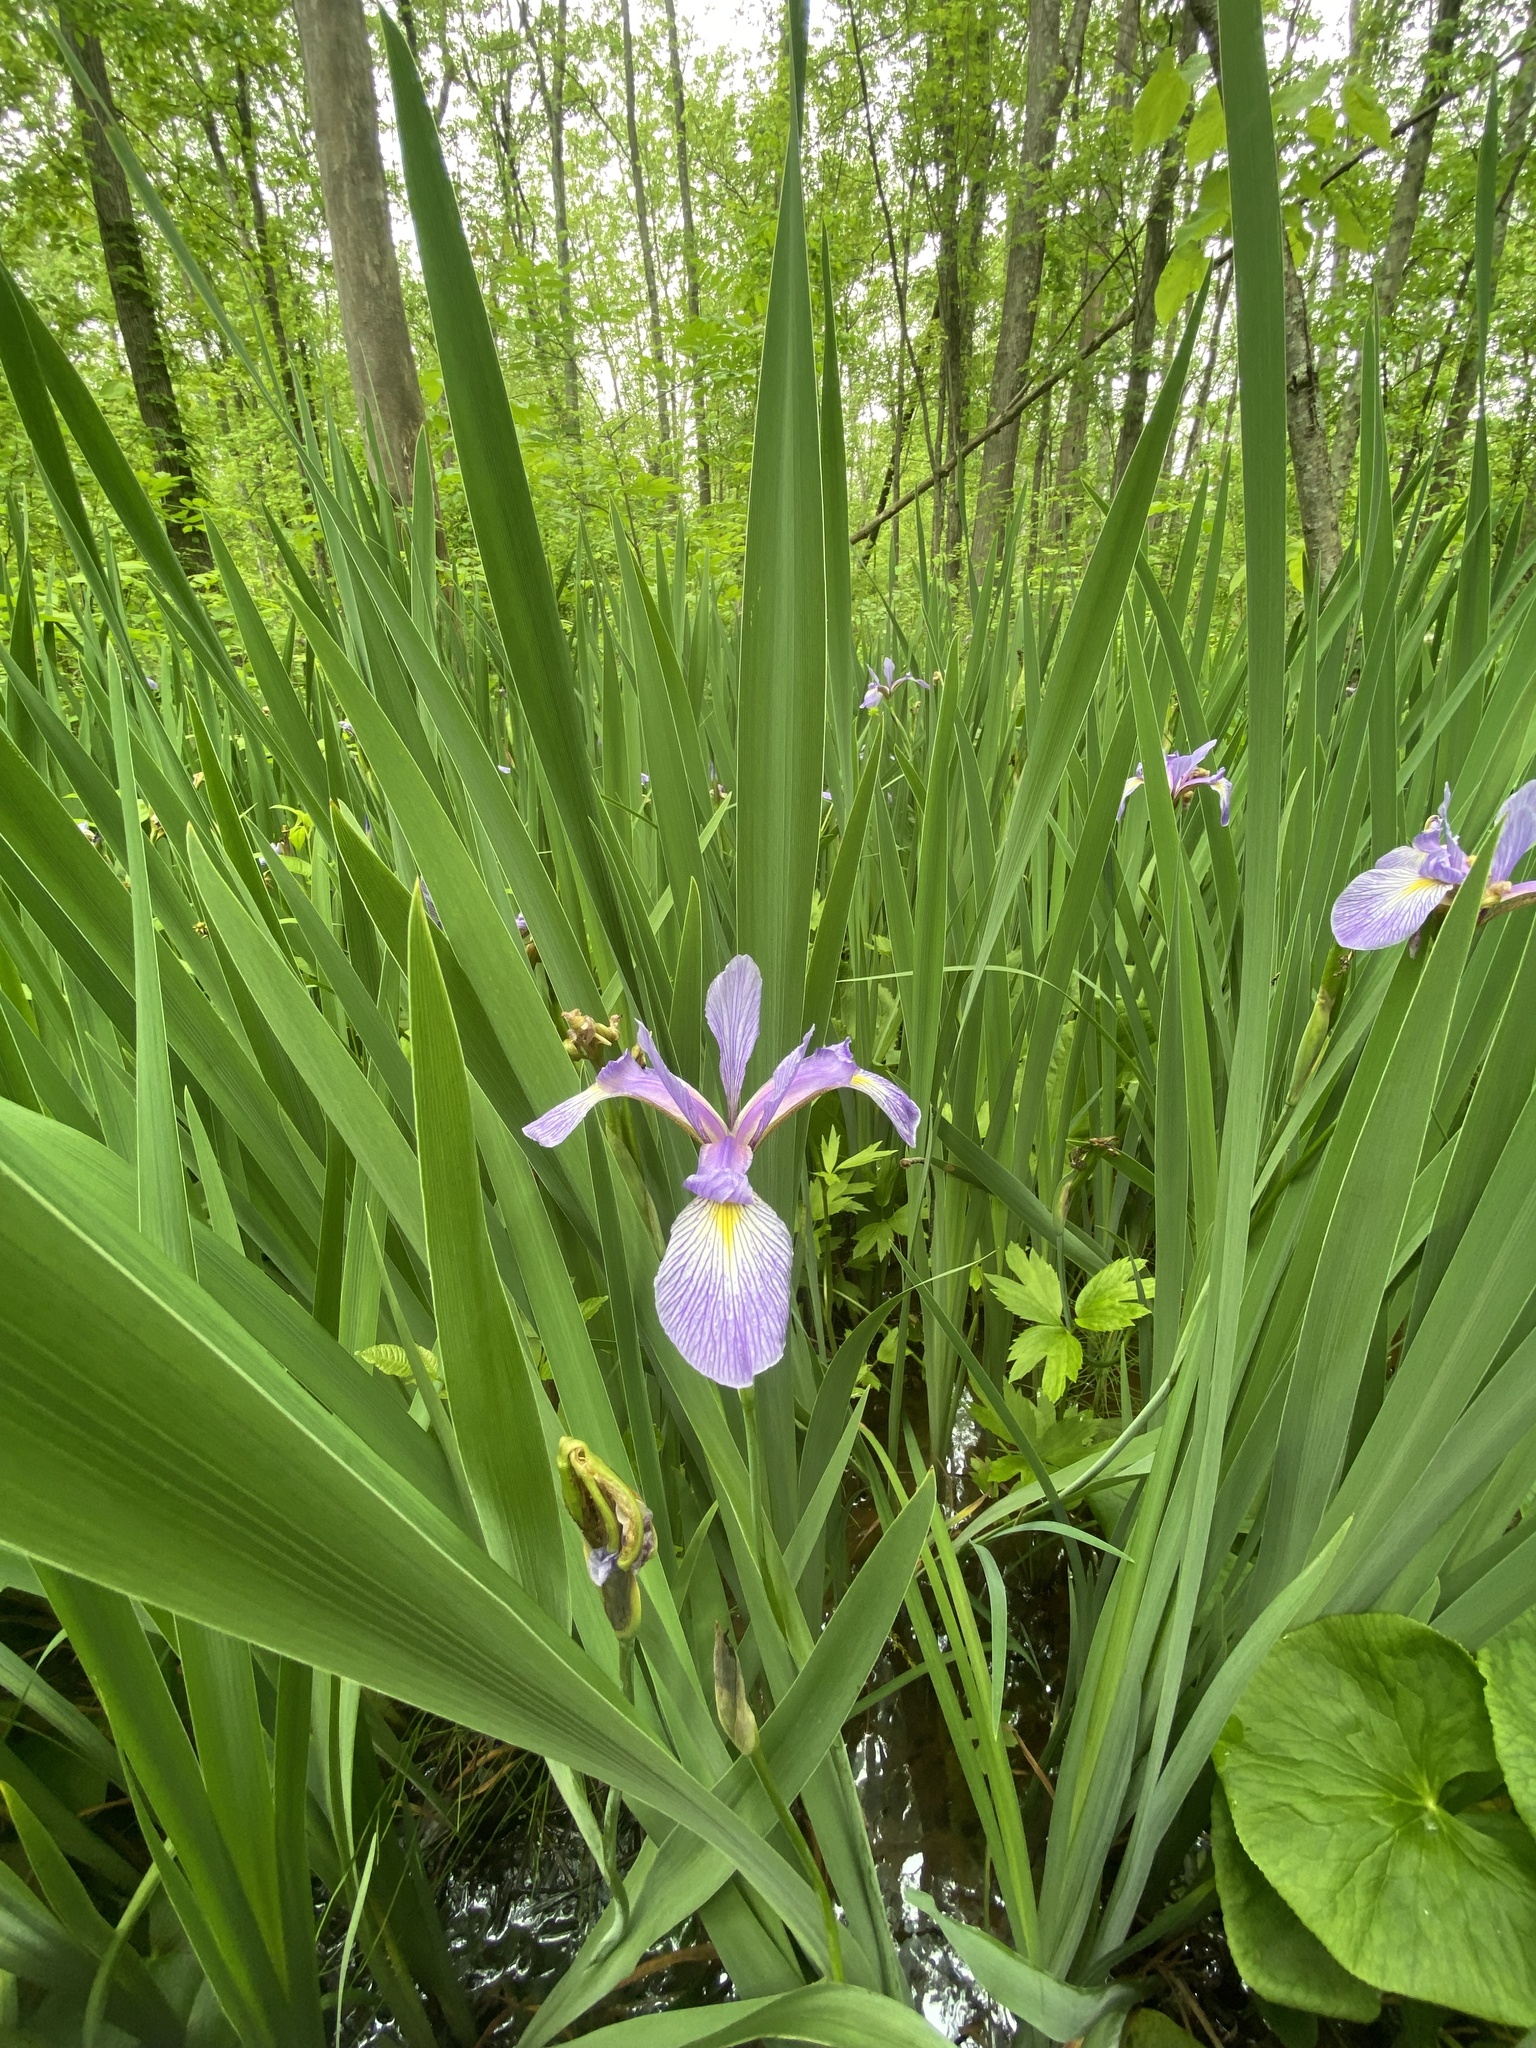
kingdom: Plantae
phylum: Tracheophyta
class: Liliopsida
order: Asparagales
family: Iridaceae
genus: Iris
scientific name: Iris virginica
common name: Southern blue flag
